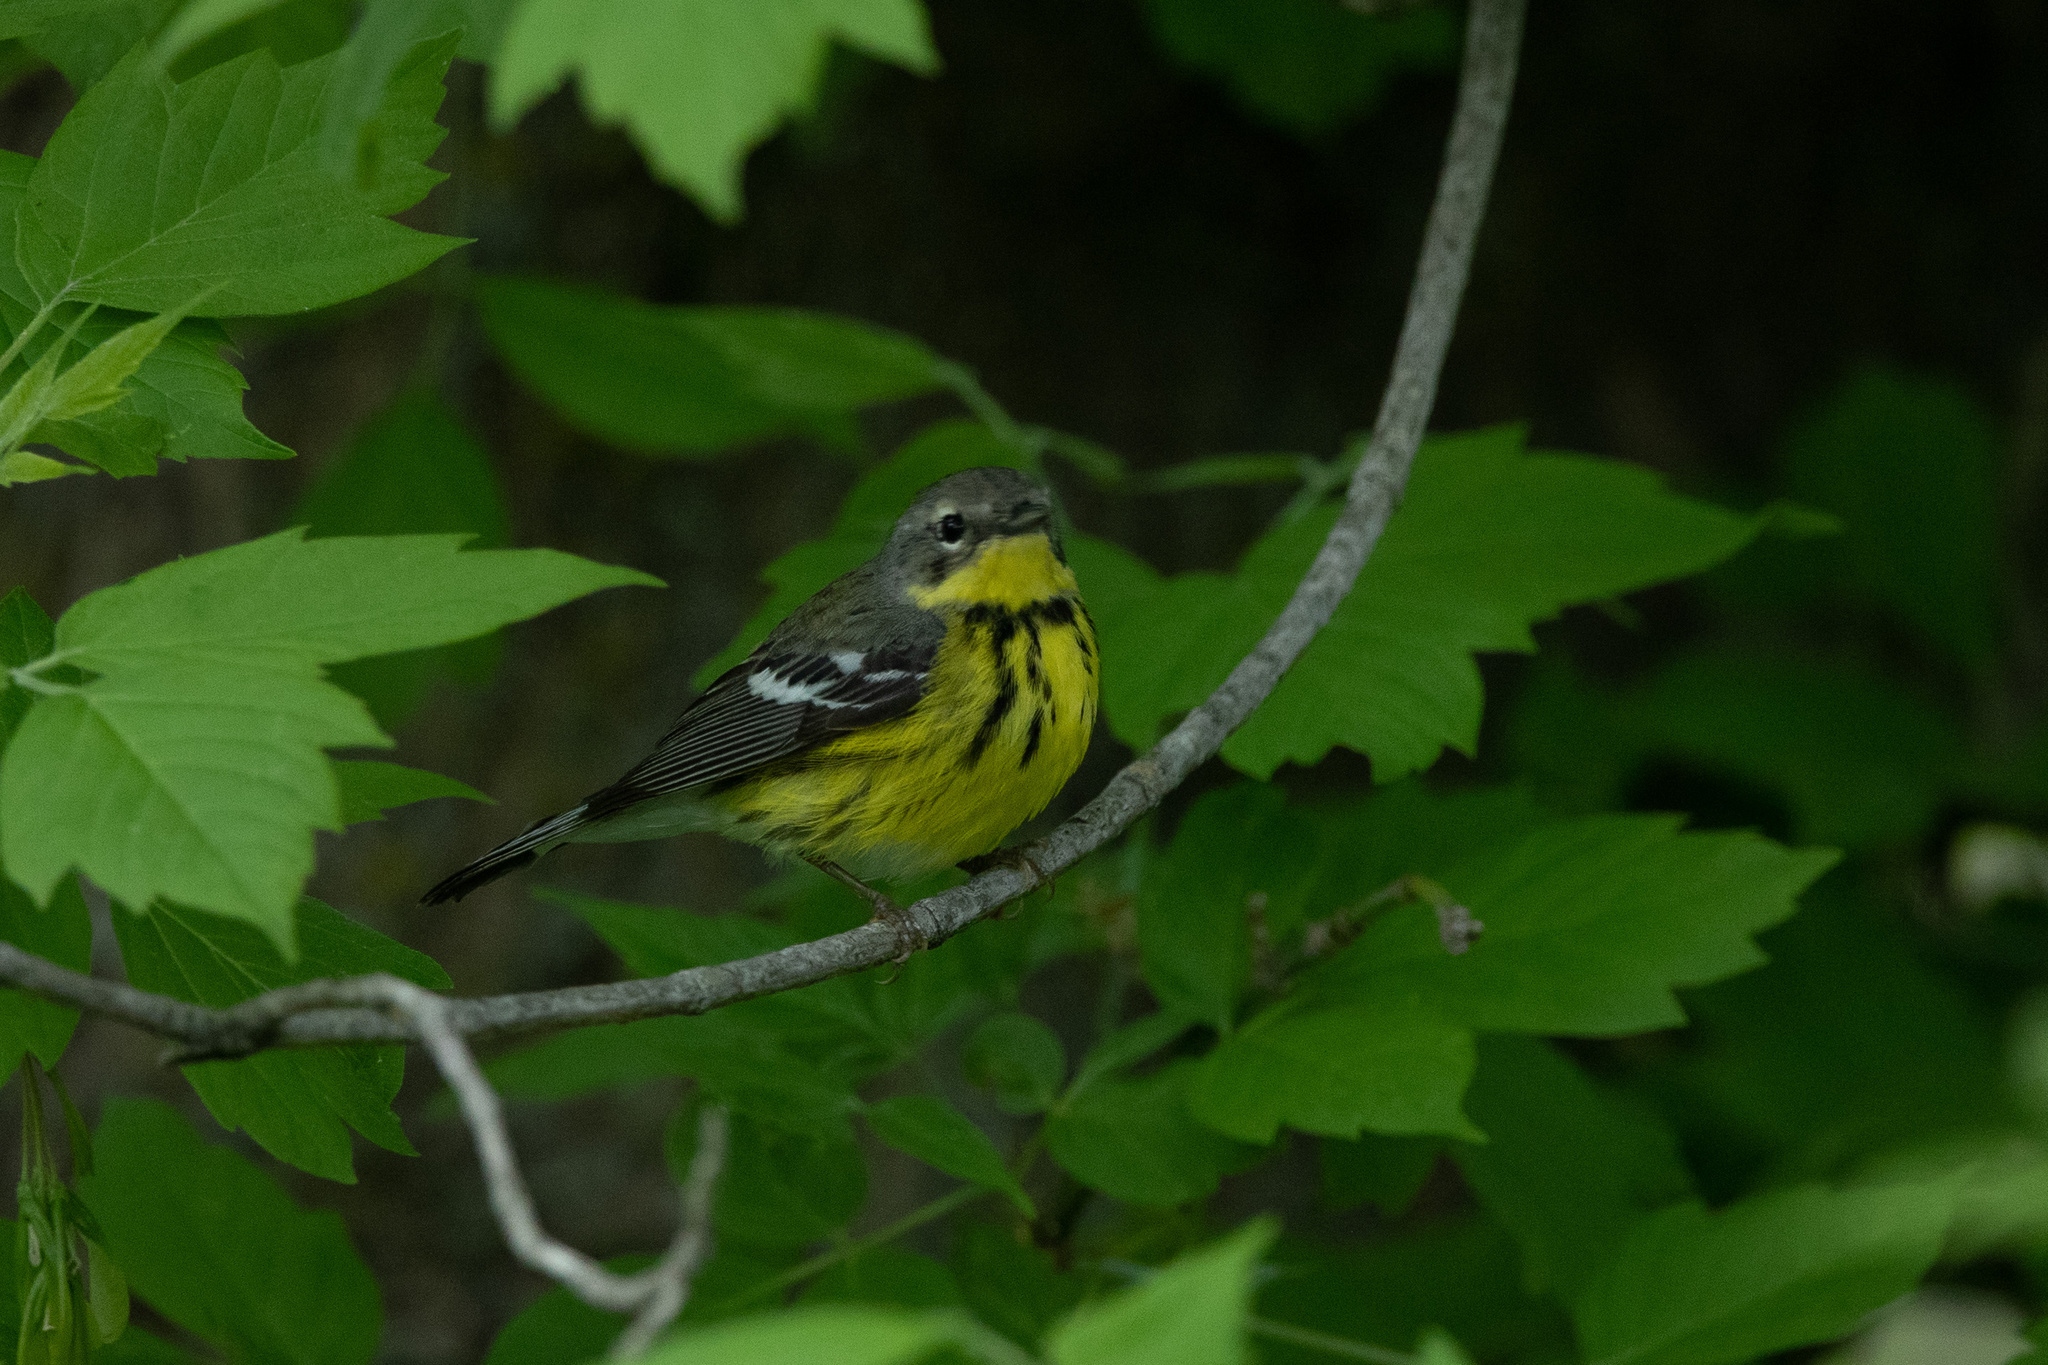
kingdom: Animalia
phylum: Chordata
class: Aves
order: Passeriformes
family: Parulidae
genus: Setophaga
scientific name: Setophaga magnolia
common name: Magnolia warbler
